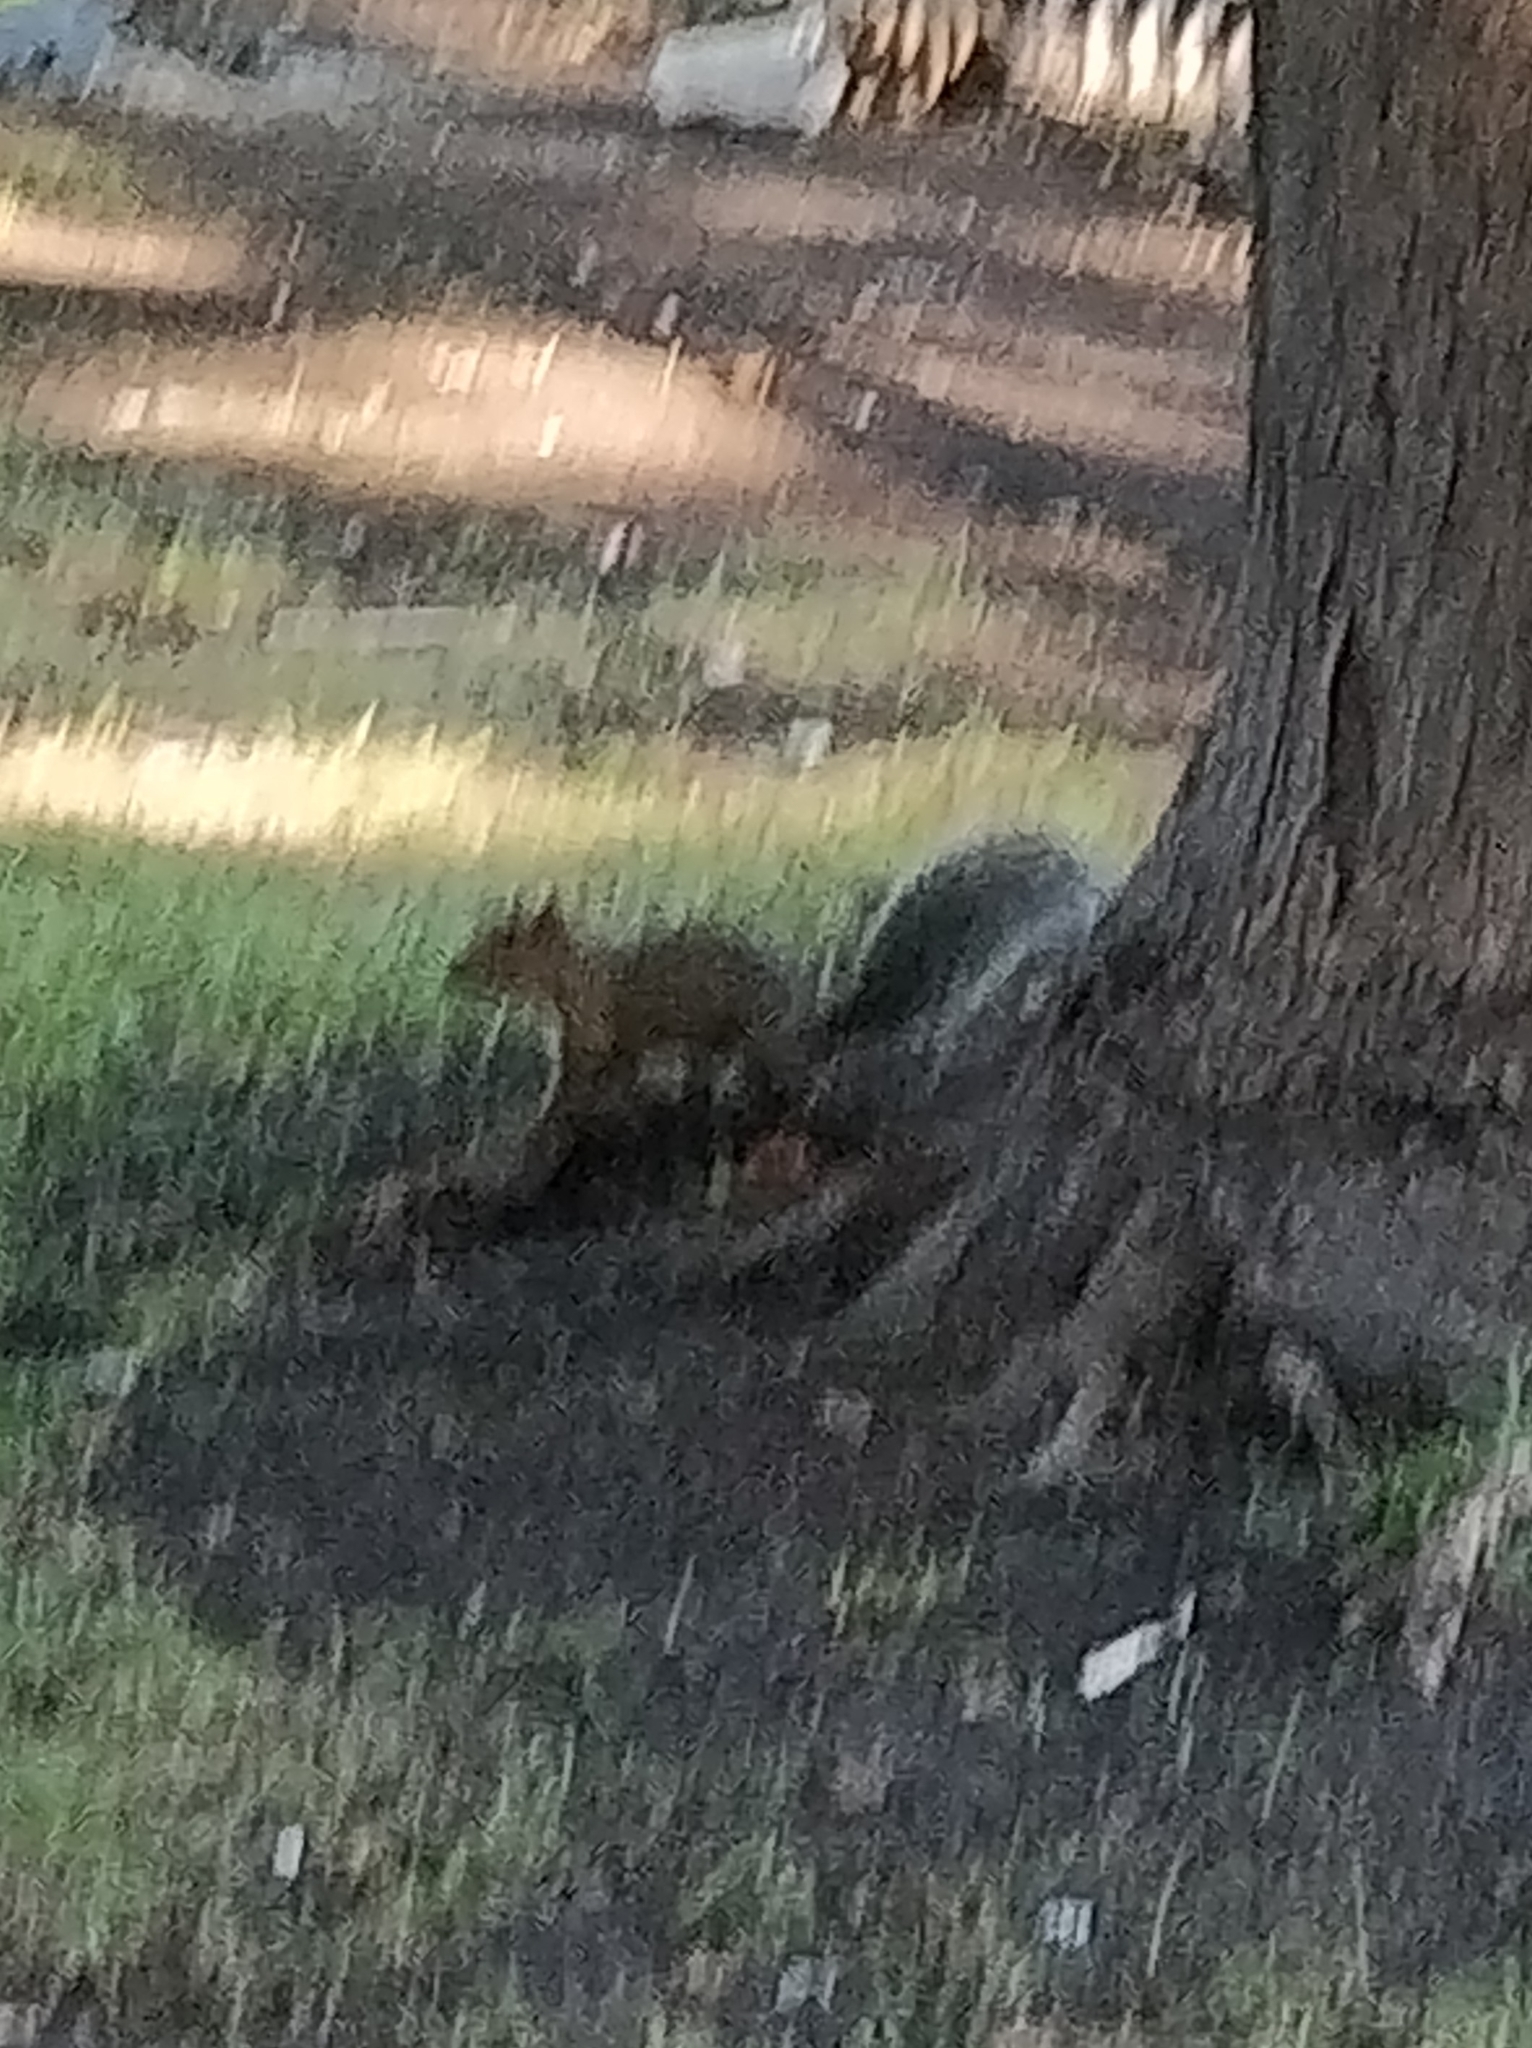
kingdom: Animalia
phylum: Chordata
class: Mammalia
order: Rodentia
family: Sciuridae
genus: Sciurus
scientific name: Sciurus carolinensis
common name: Eastern gray squirrel
